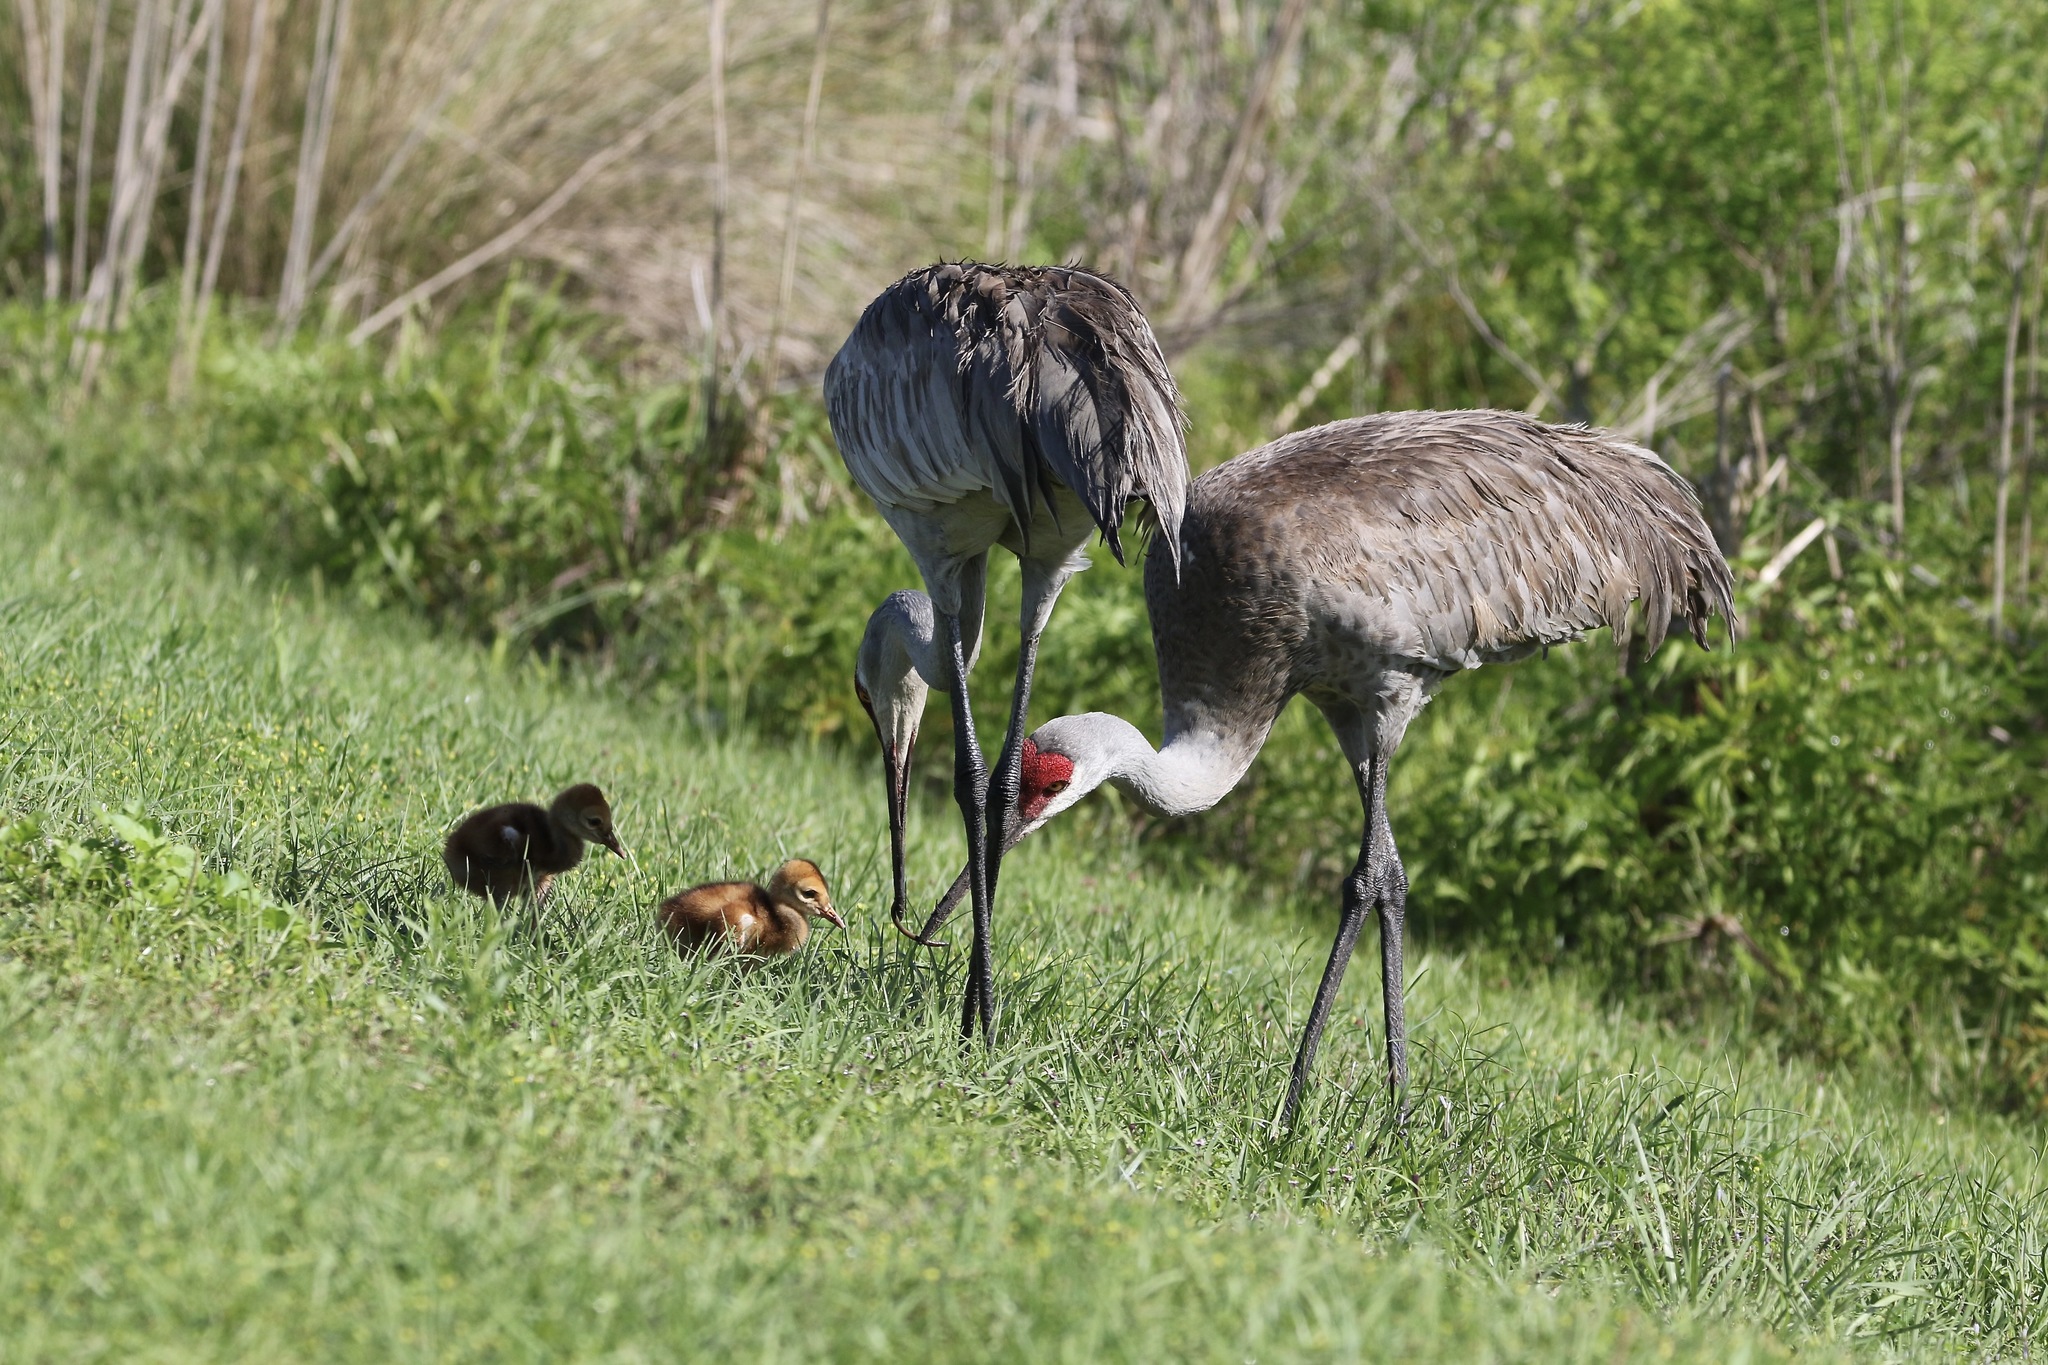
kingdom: Animalia
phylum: Chordata
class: Aves
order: Gruiformes
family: Gruidae
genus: Grus
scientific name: Grus canadensis
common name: Sandhill crane
